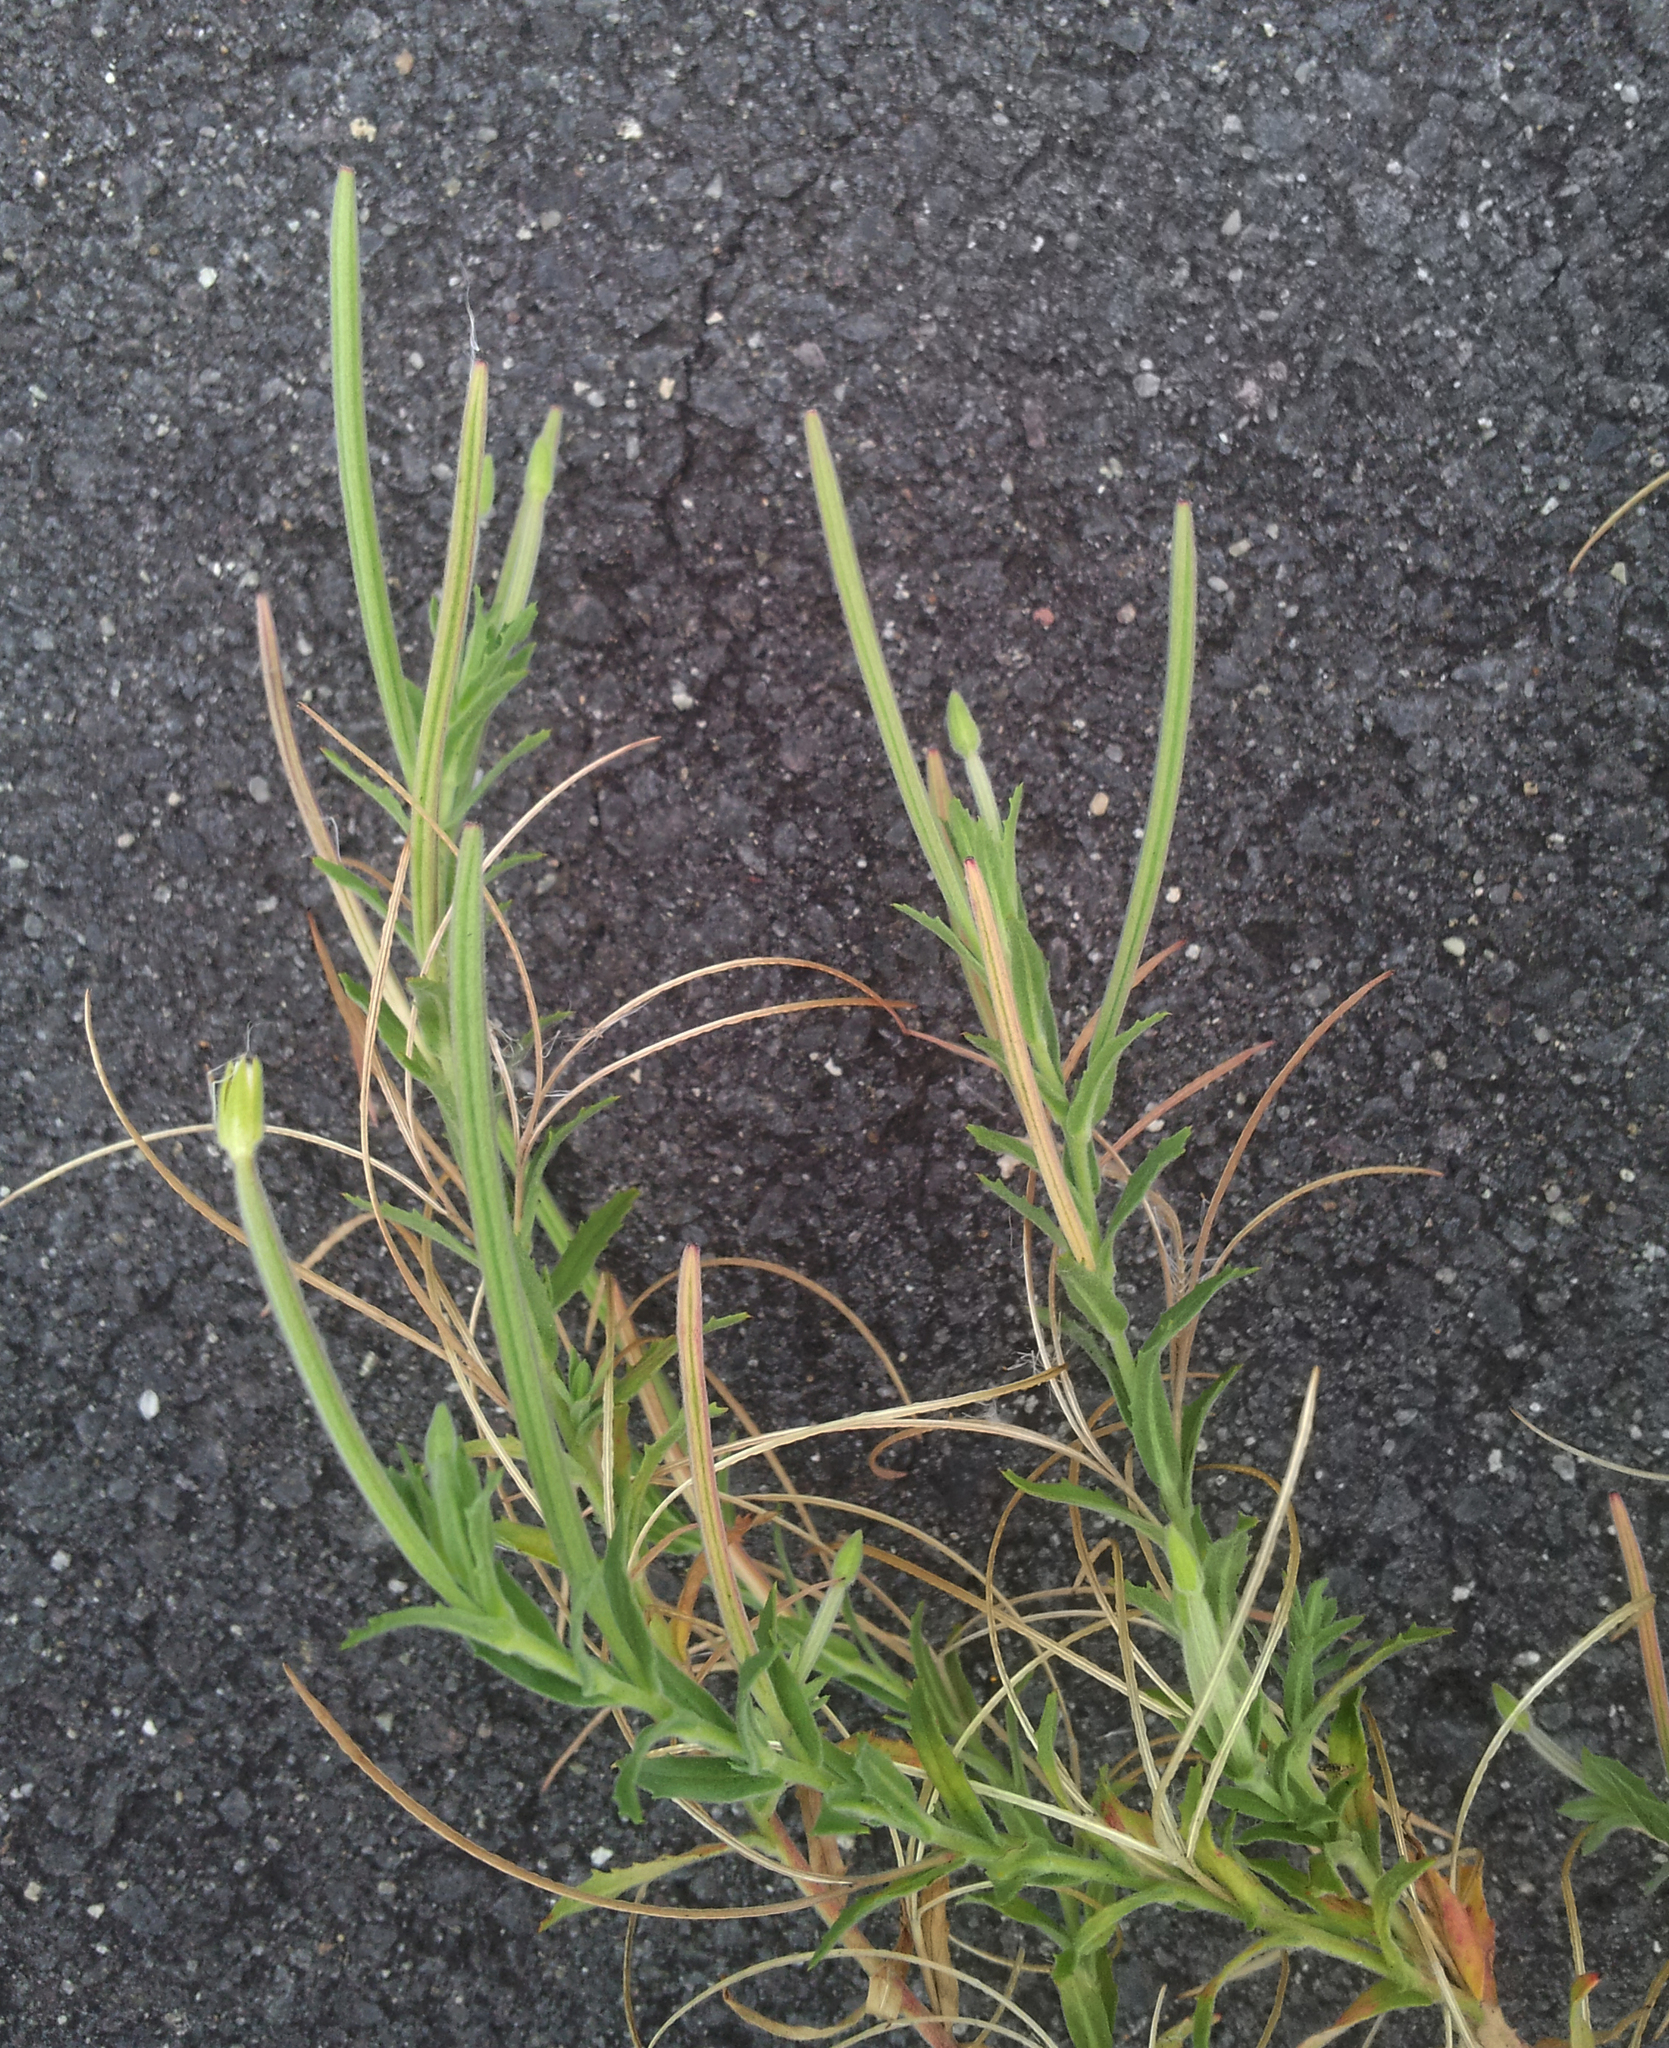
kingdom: Plantae
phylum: Tracheophyta
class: Magnoliopsida
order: Myrtales
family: Onagraceae
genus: Epilobium
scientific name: Epilobium hirtigerum
